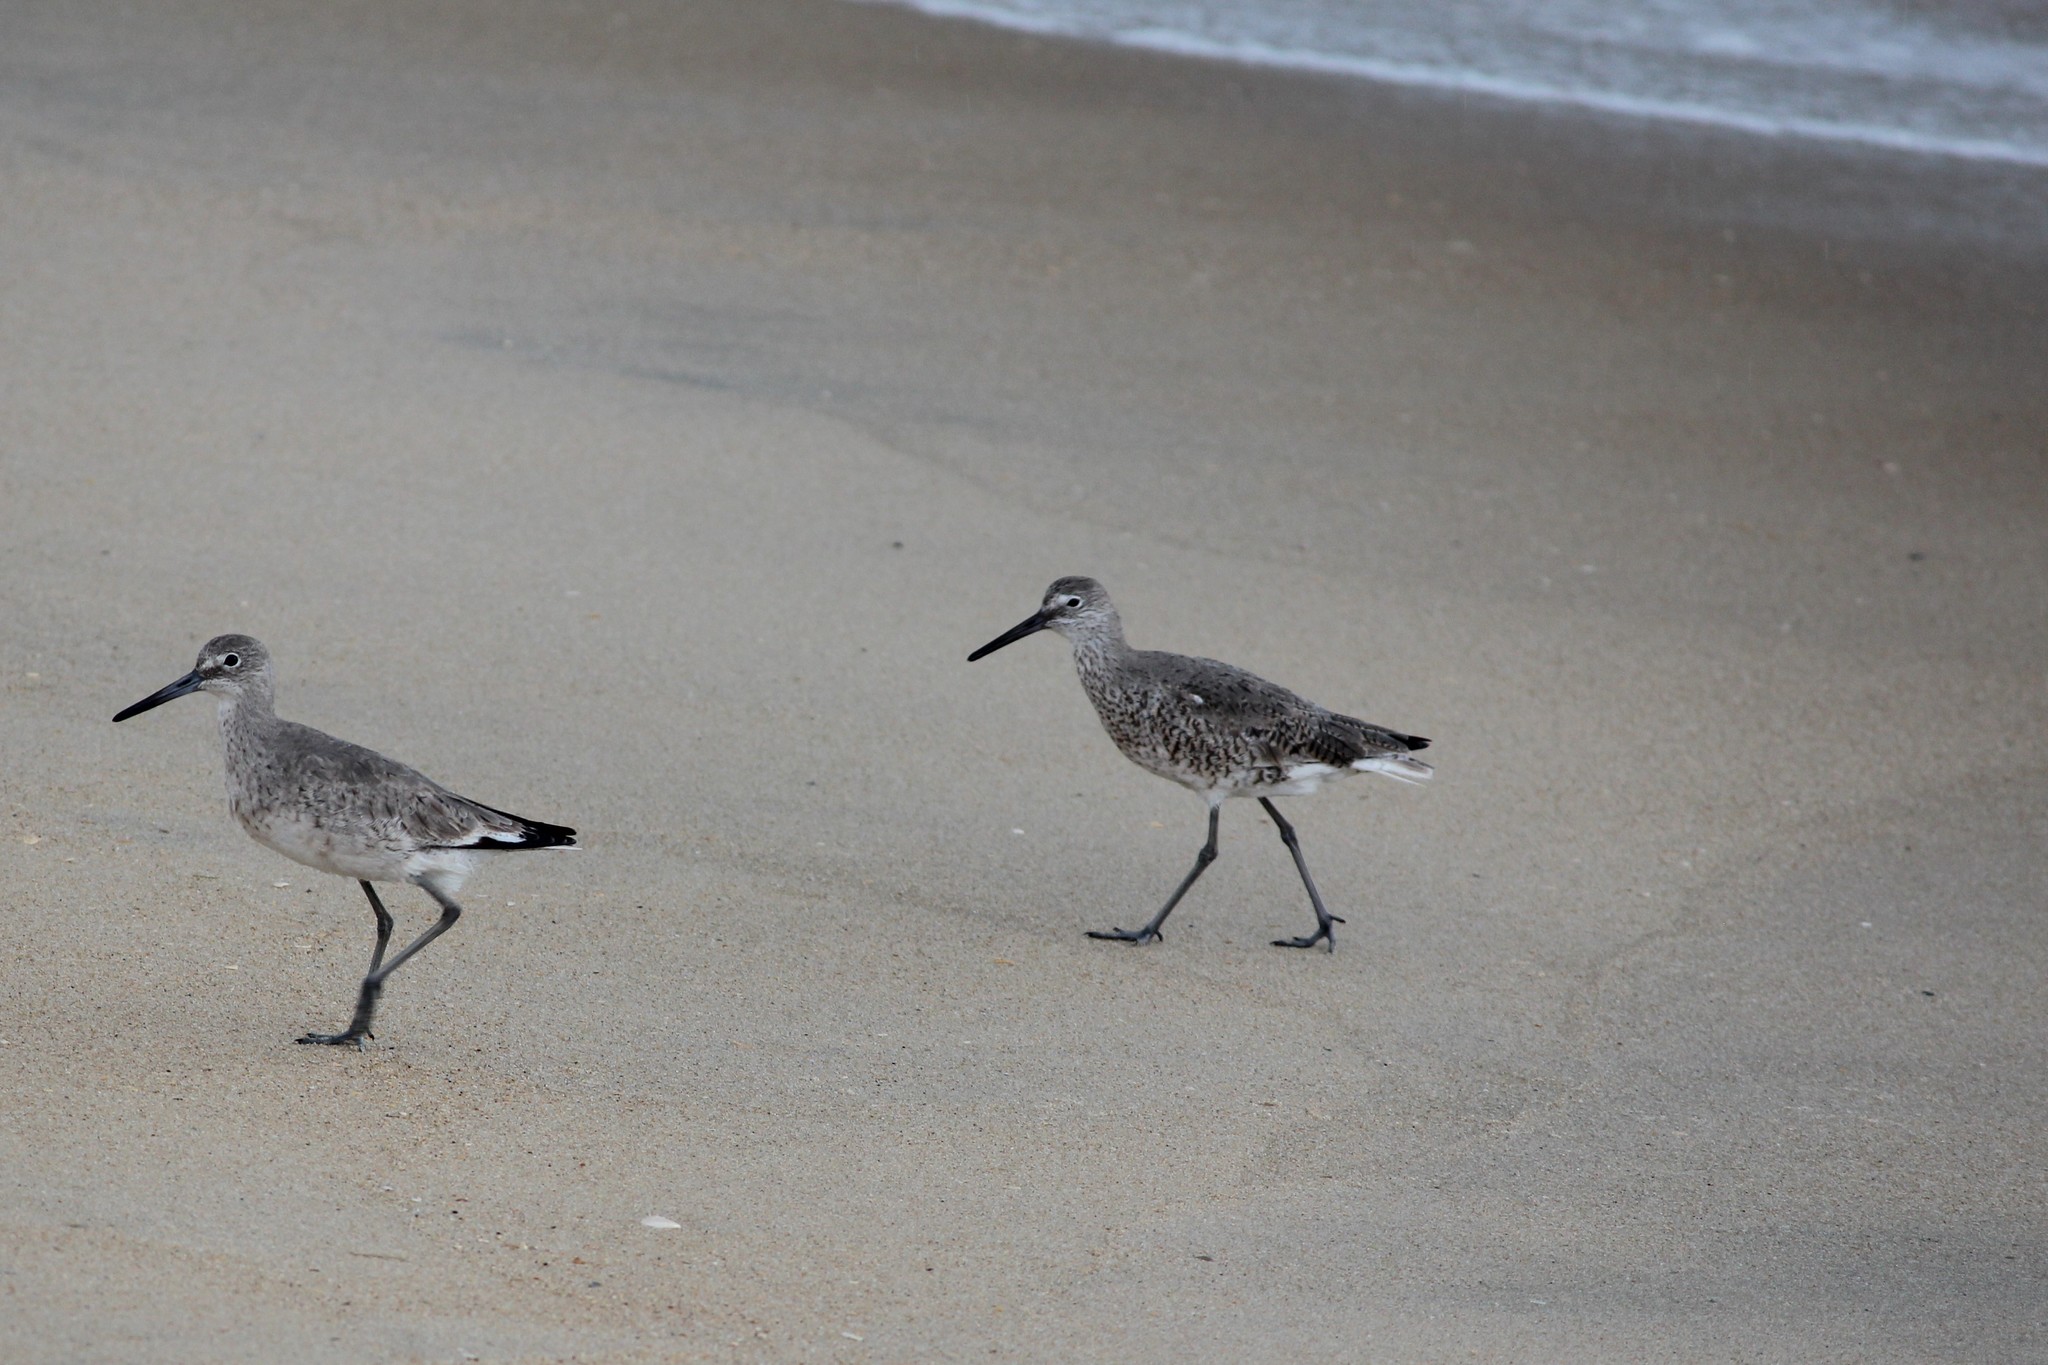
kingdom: Animalia
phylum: Chordata
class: Aves
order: Charadriiformes
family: Scolopacidae
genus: Tringa
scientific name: Tringa semipalmata
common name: Willet
